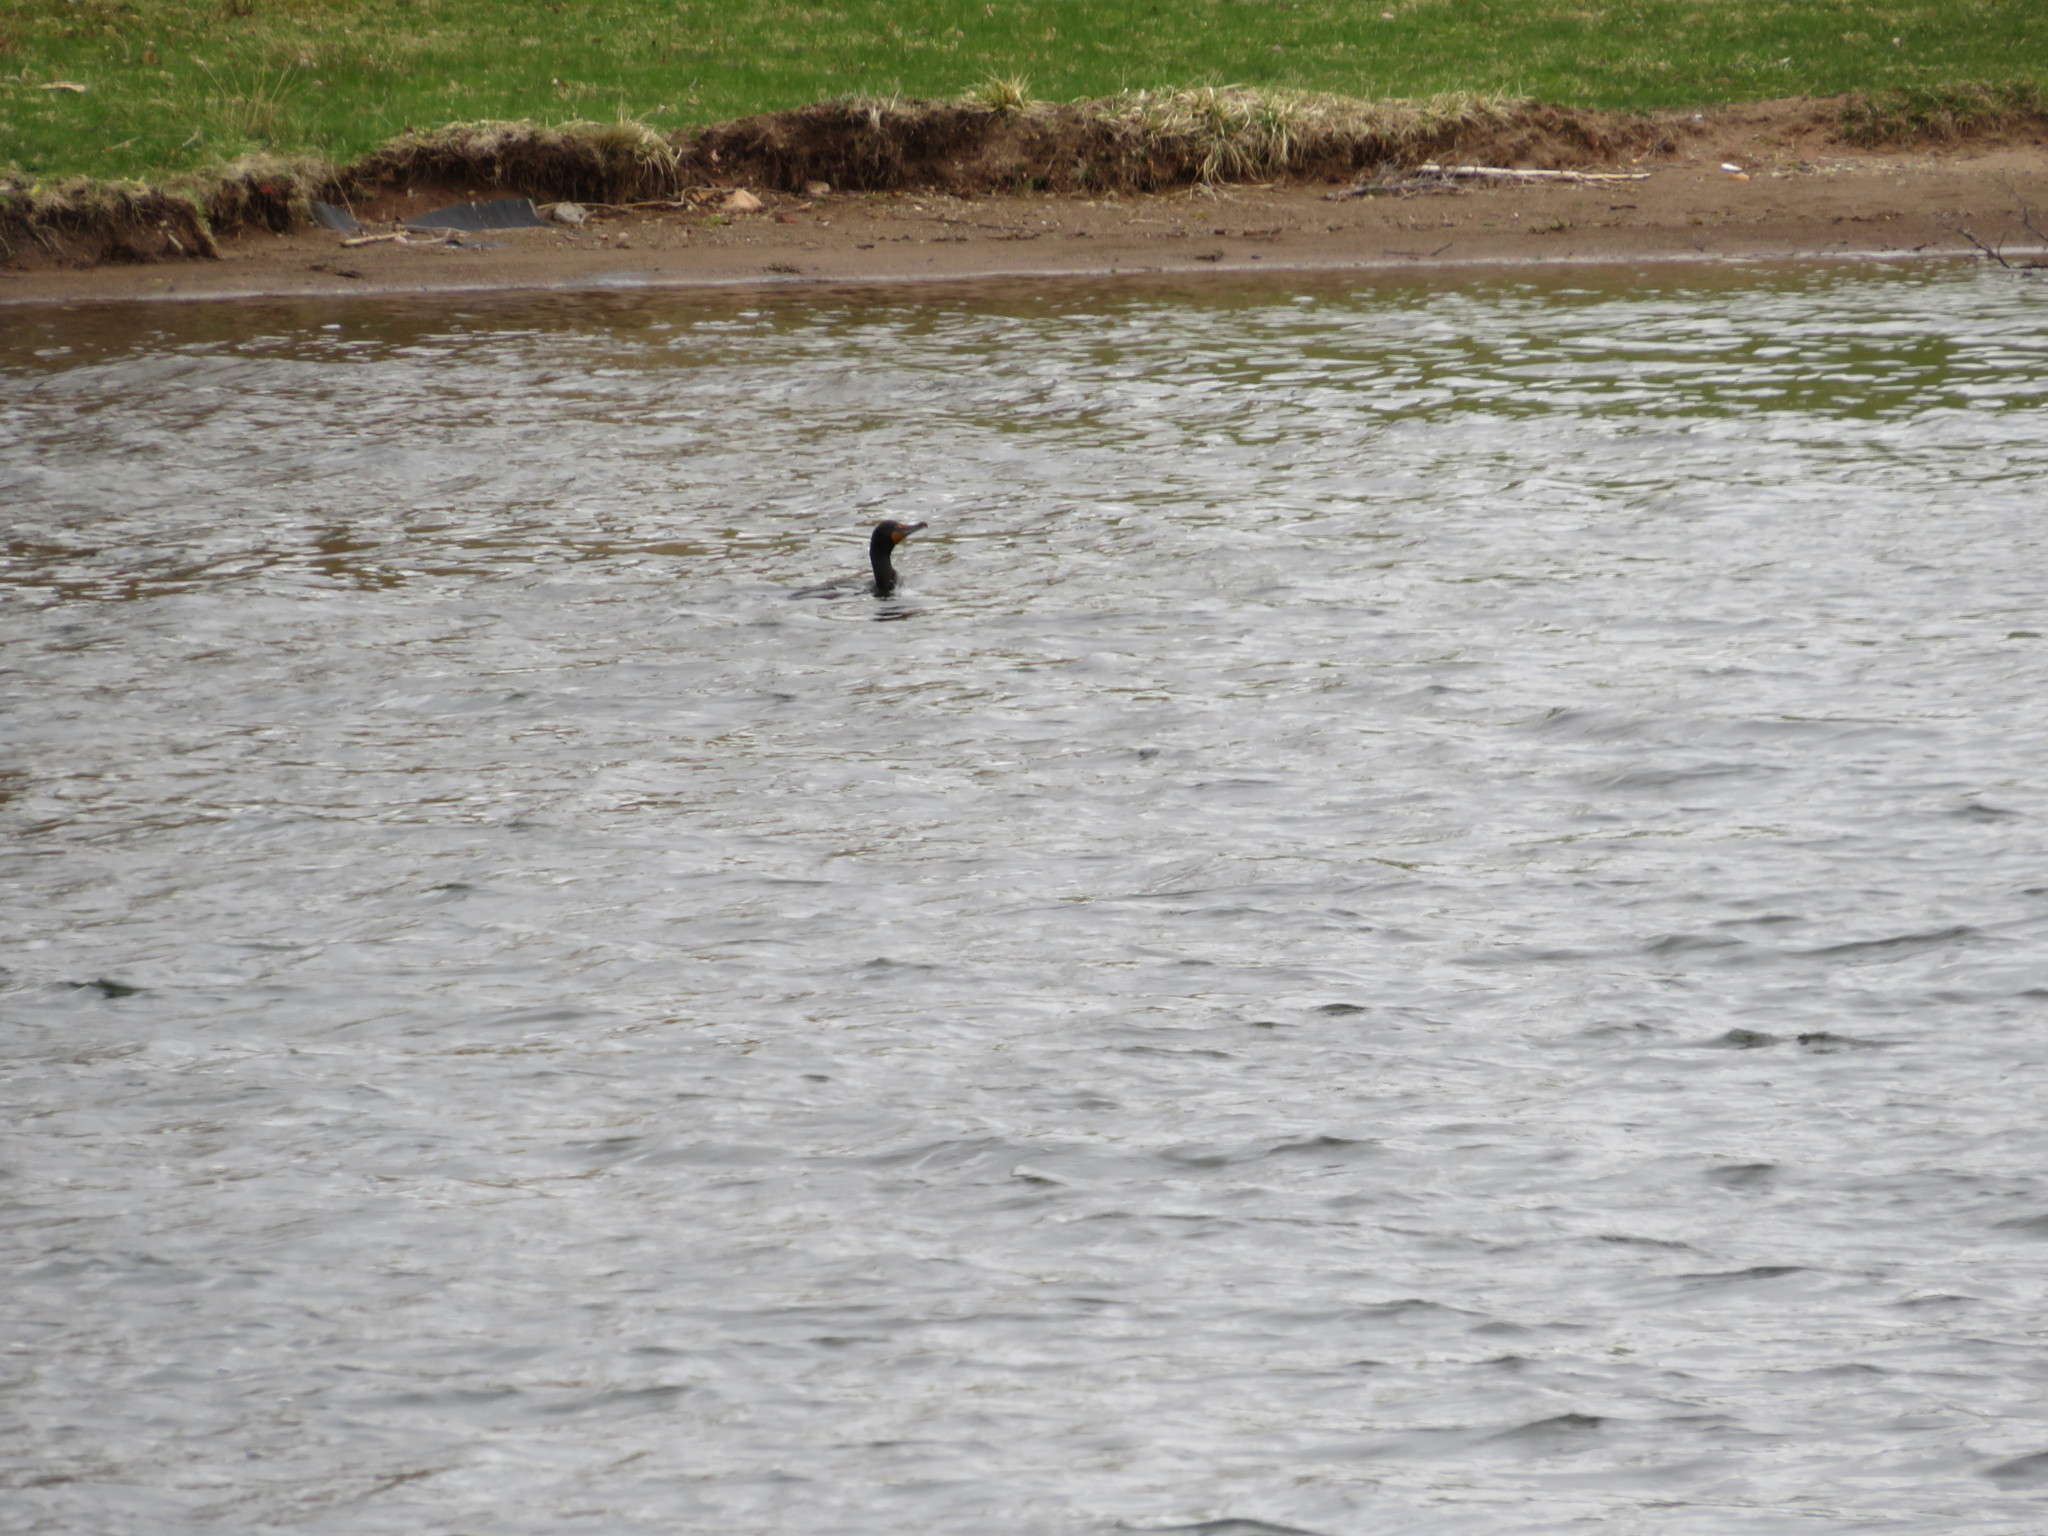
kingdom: Animalia
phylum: Chordata
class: Aves
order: Suliformes
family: Phalacrocoracidae
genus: Phalacrocorax
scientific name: Phalacrocorax auritus
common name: Double-crested cormorant
